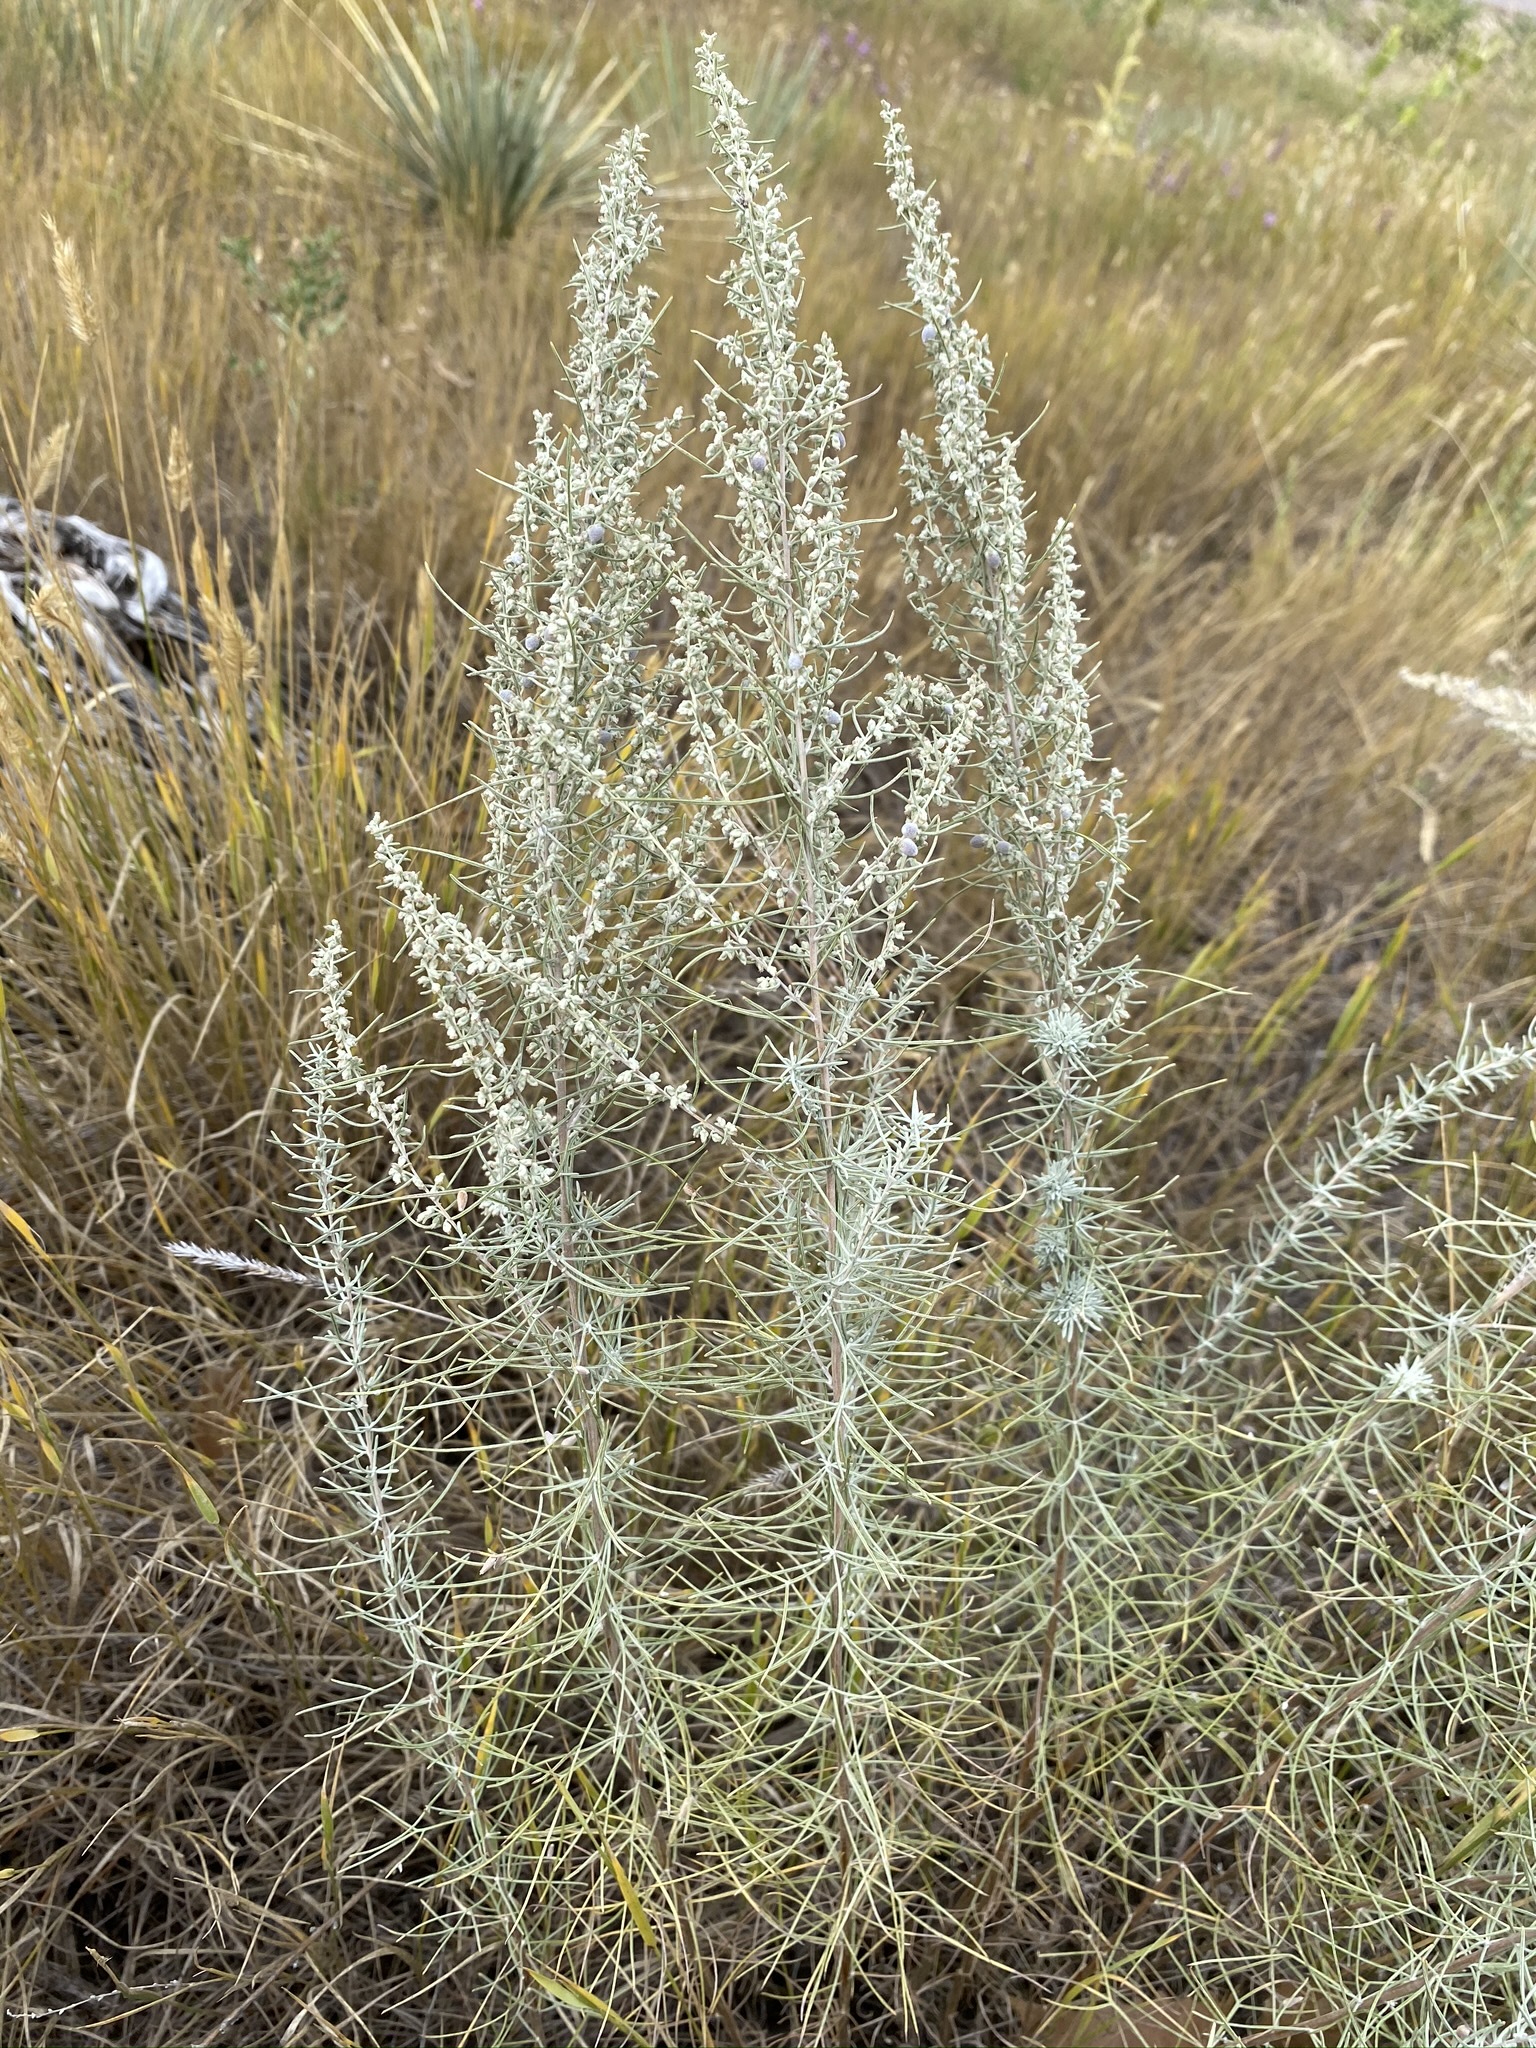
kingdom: Plantae
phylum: Tracheophyta
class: Magnoliopsida
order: Asterales
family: Asteraceae
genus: Artemisia
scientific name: Artemisia filifolia
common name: Sand-sage
